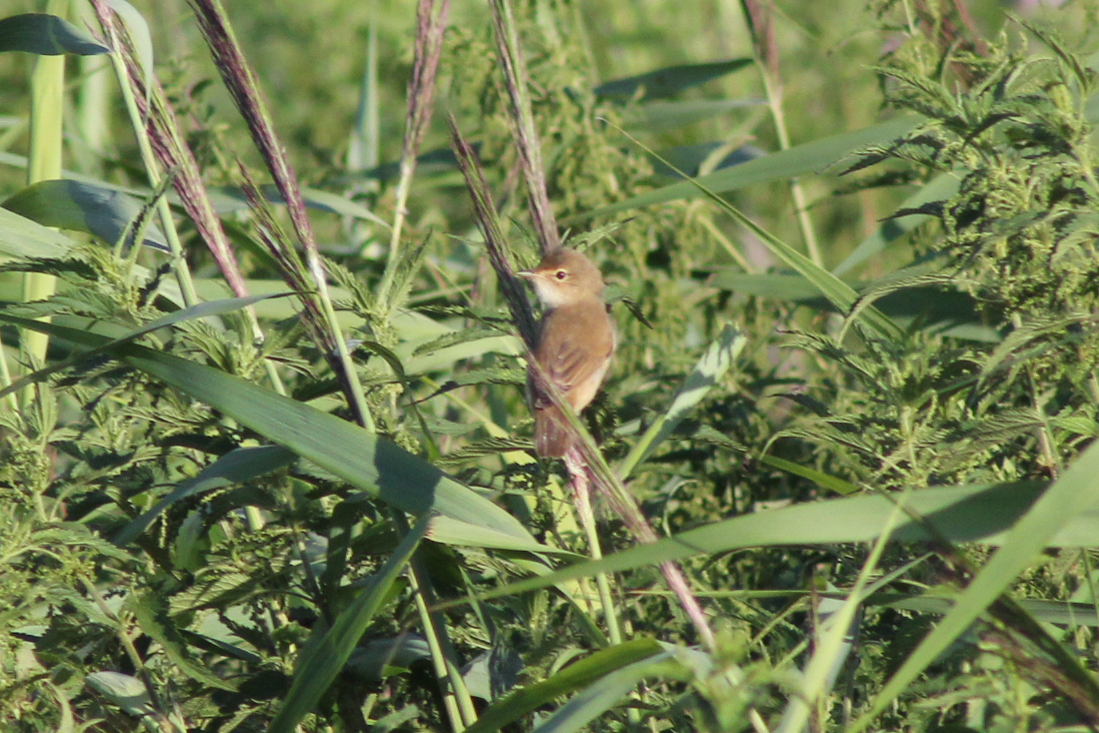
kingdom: Animalia
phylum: Chordata
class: Aves
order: Passeriformes
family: Acrocephalidae
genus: Acrocephalus
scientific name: Acrocephalus palustris
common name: Marsh warbler
